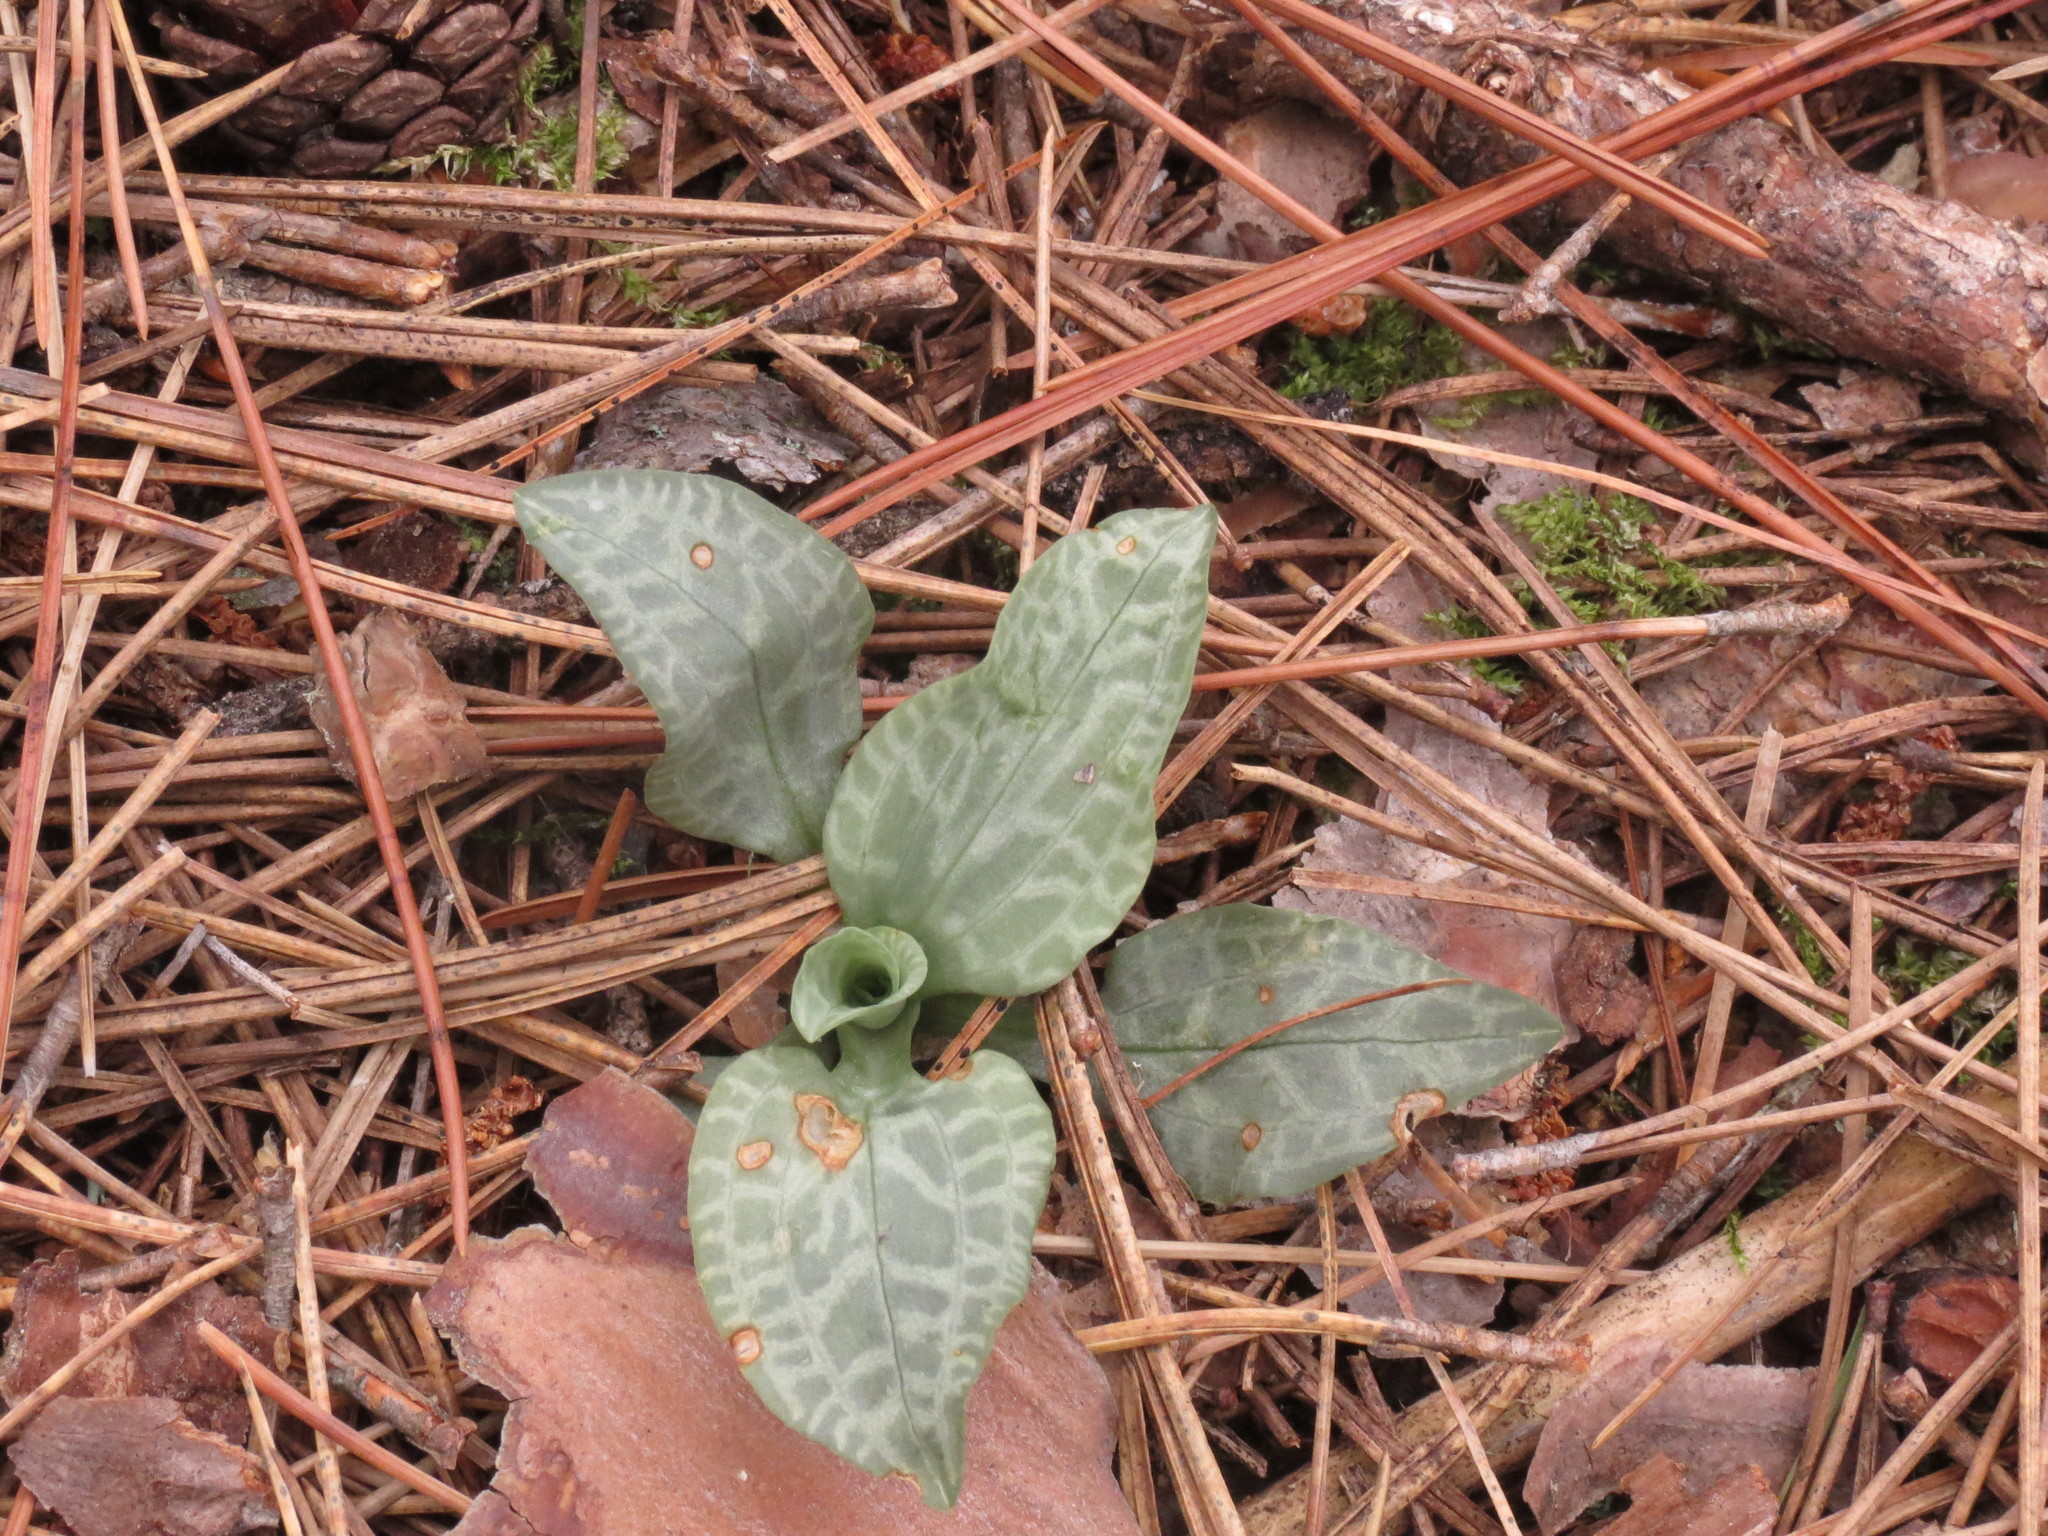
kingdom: Plantae
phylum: Tracheophyta
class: Liliopsida
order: Asparagales
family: Orchidaceae
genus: Goodyera
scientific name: Goodyera tesselata
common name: Checkered rattlesnake-plantain
